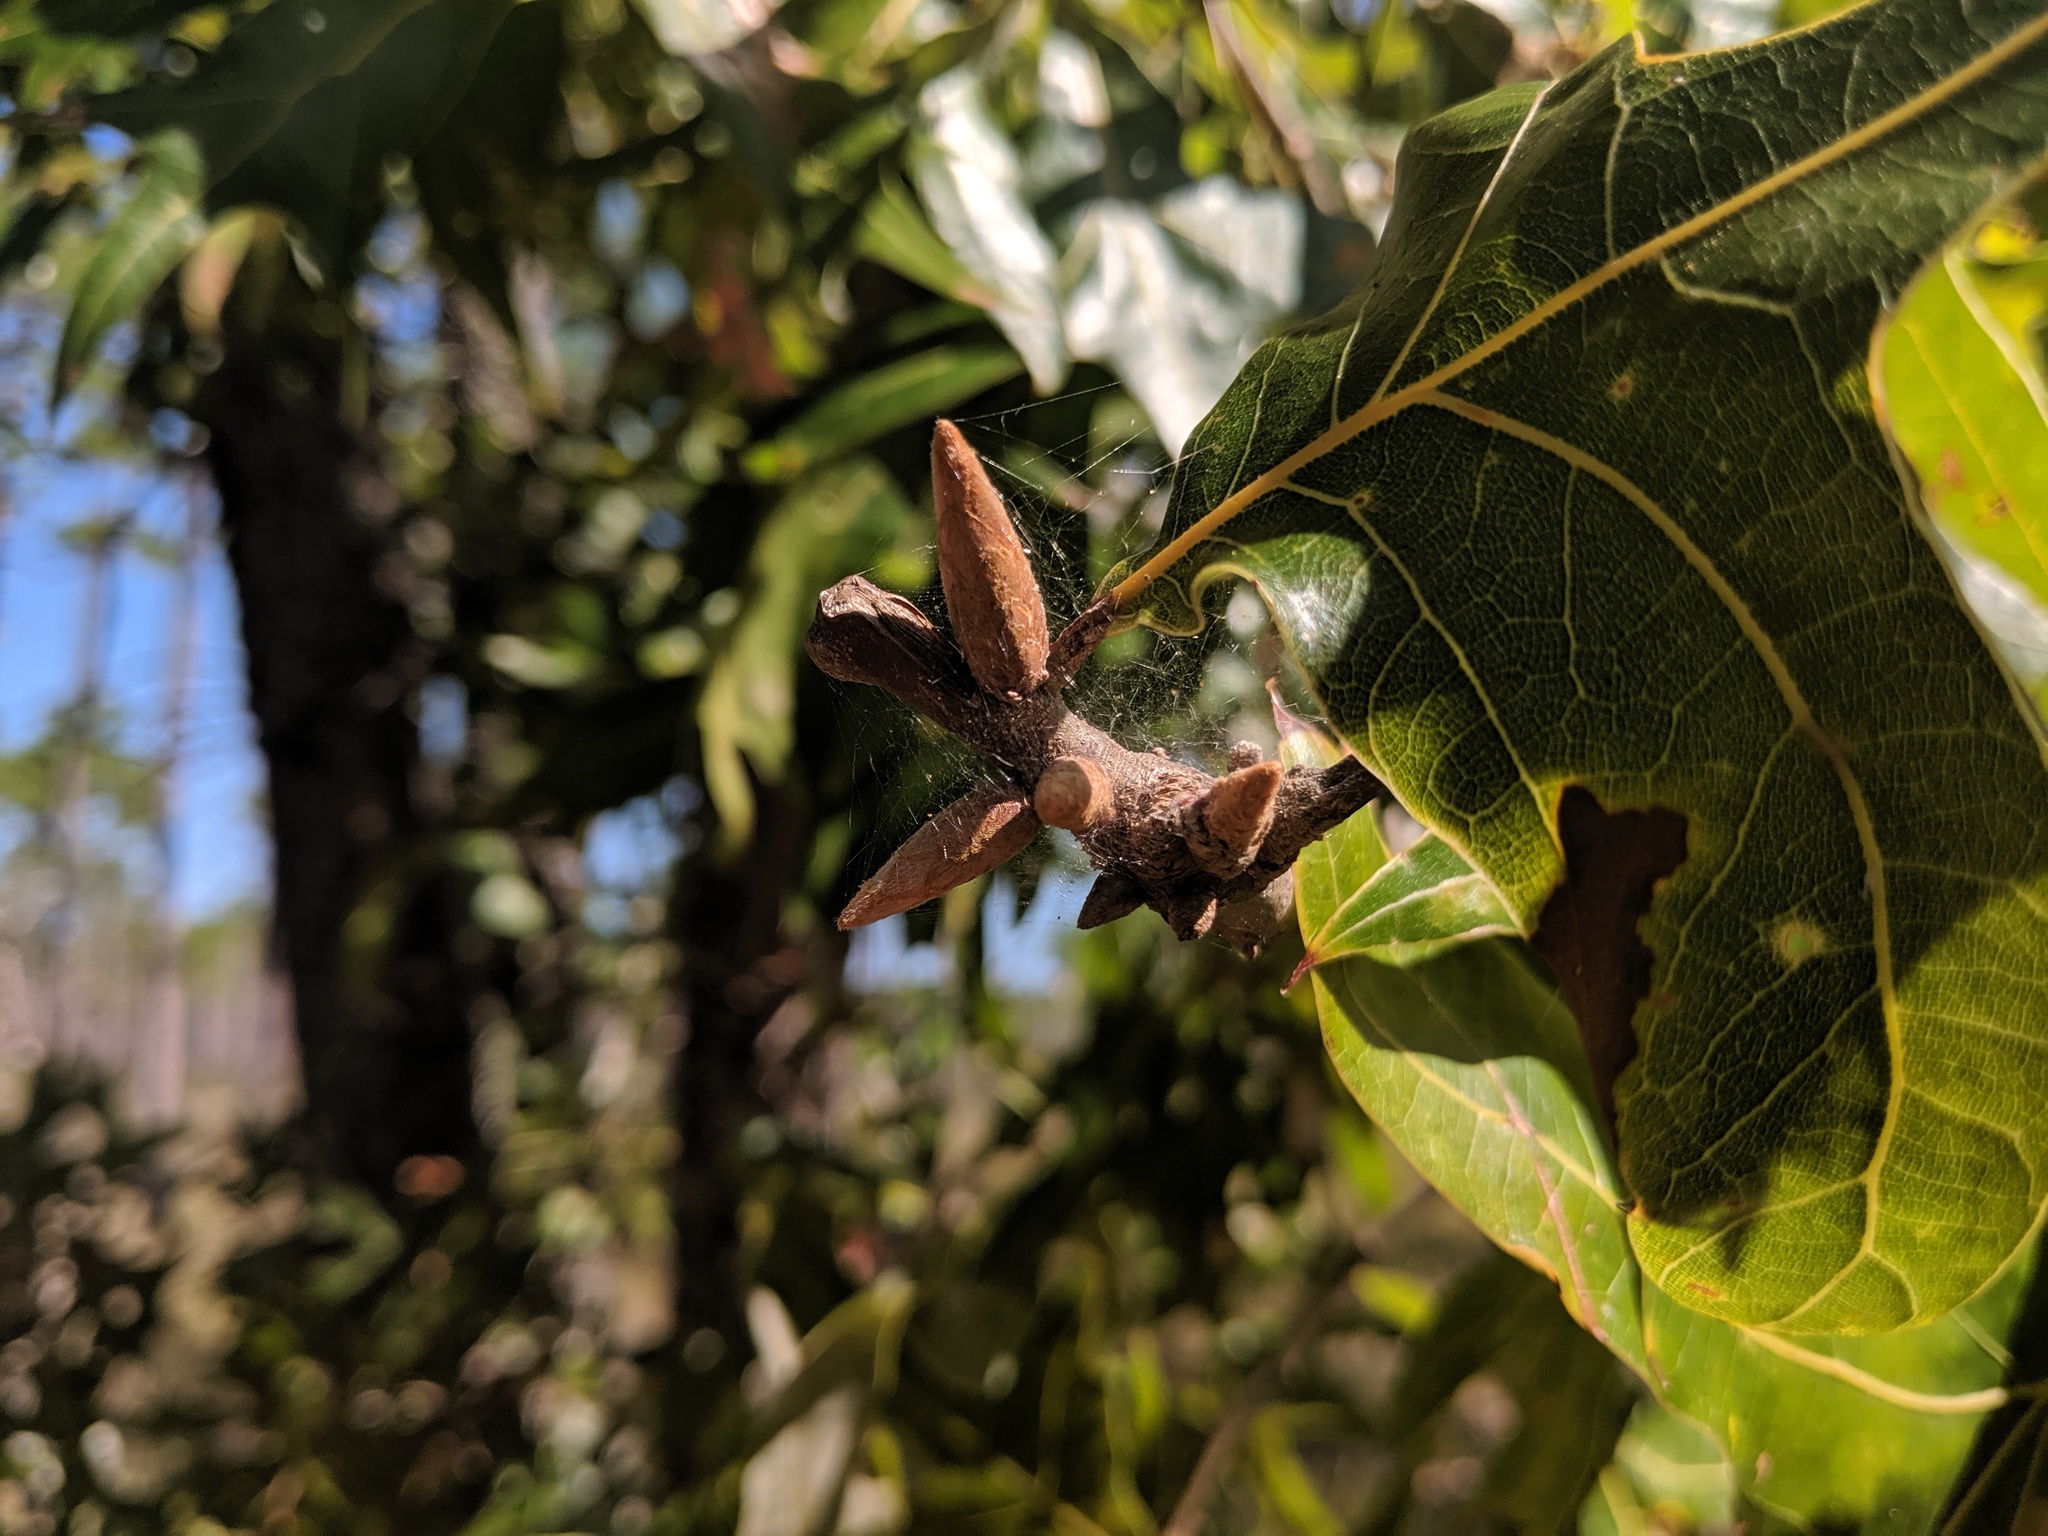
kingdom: Plantae
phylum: Tracheophyta
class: Magnoliopsida
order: Fagales
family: Fagaceae
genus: Quercus
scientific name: Quercus laevis
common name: Turkey oak
